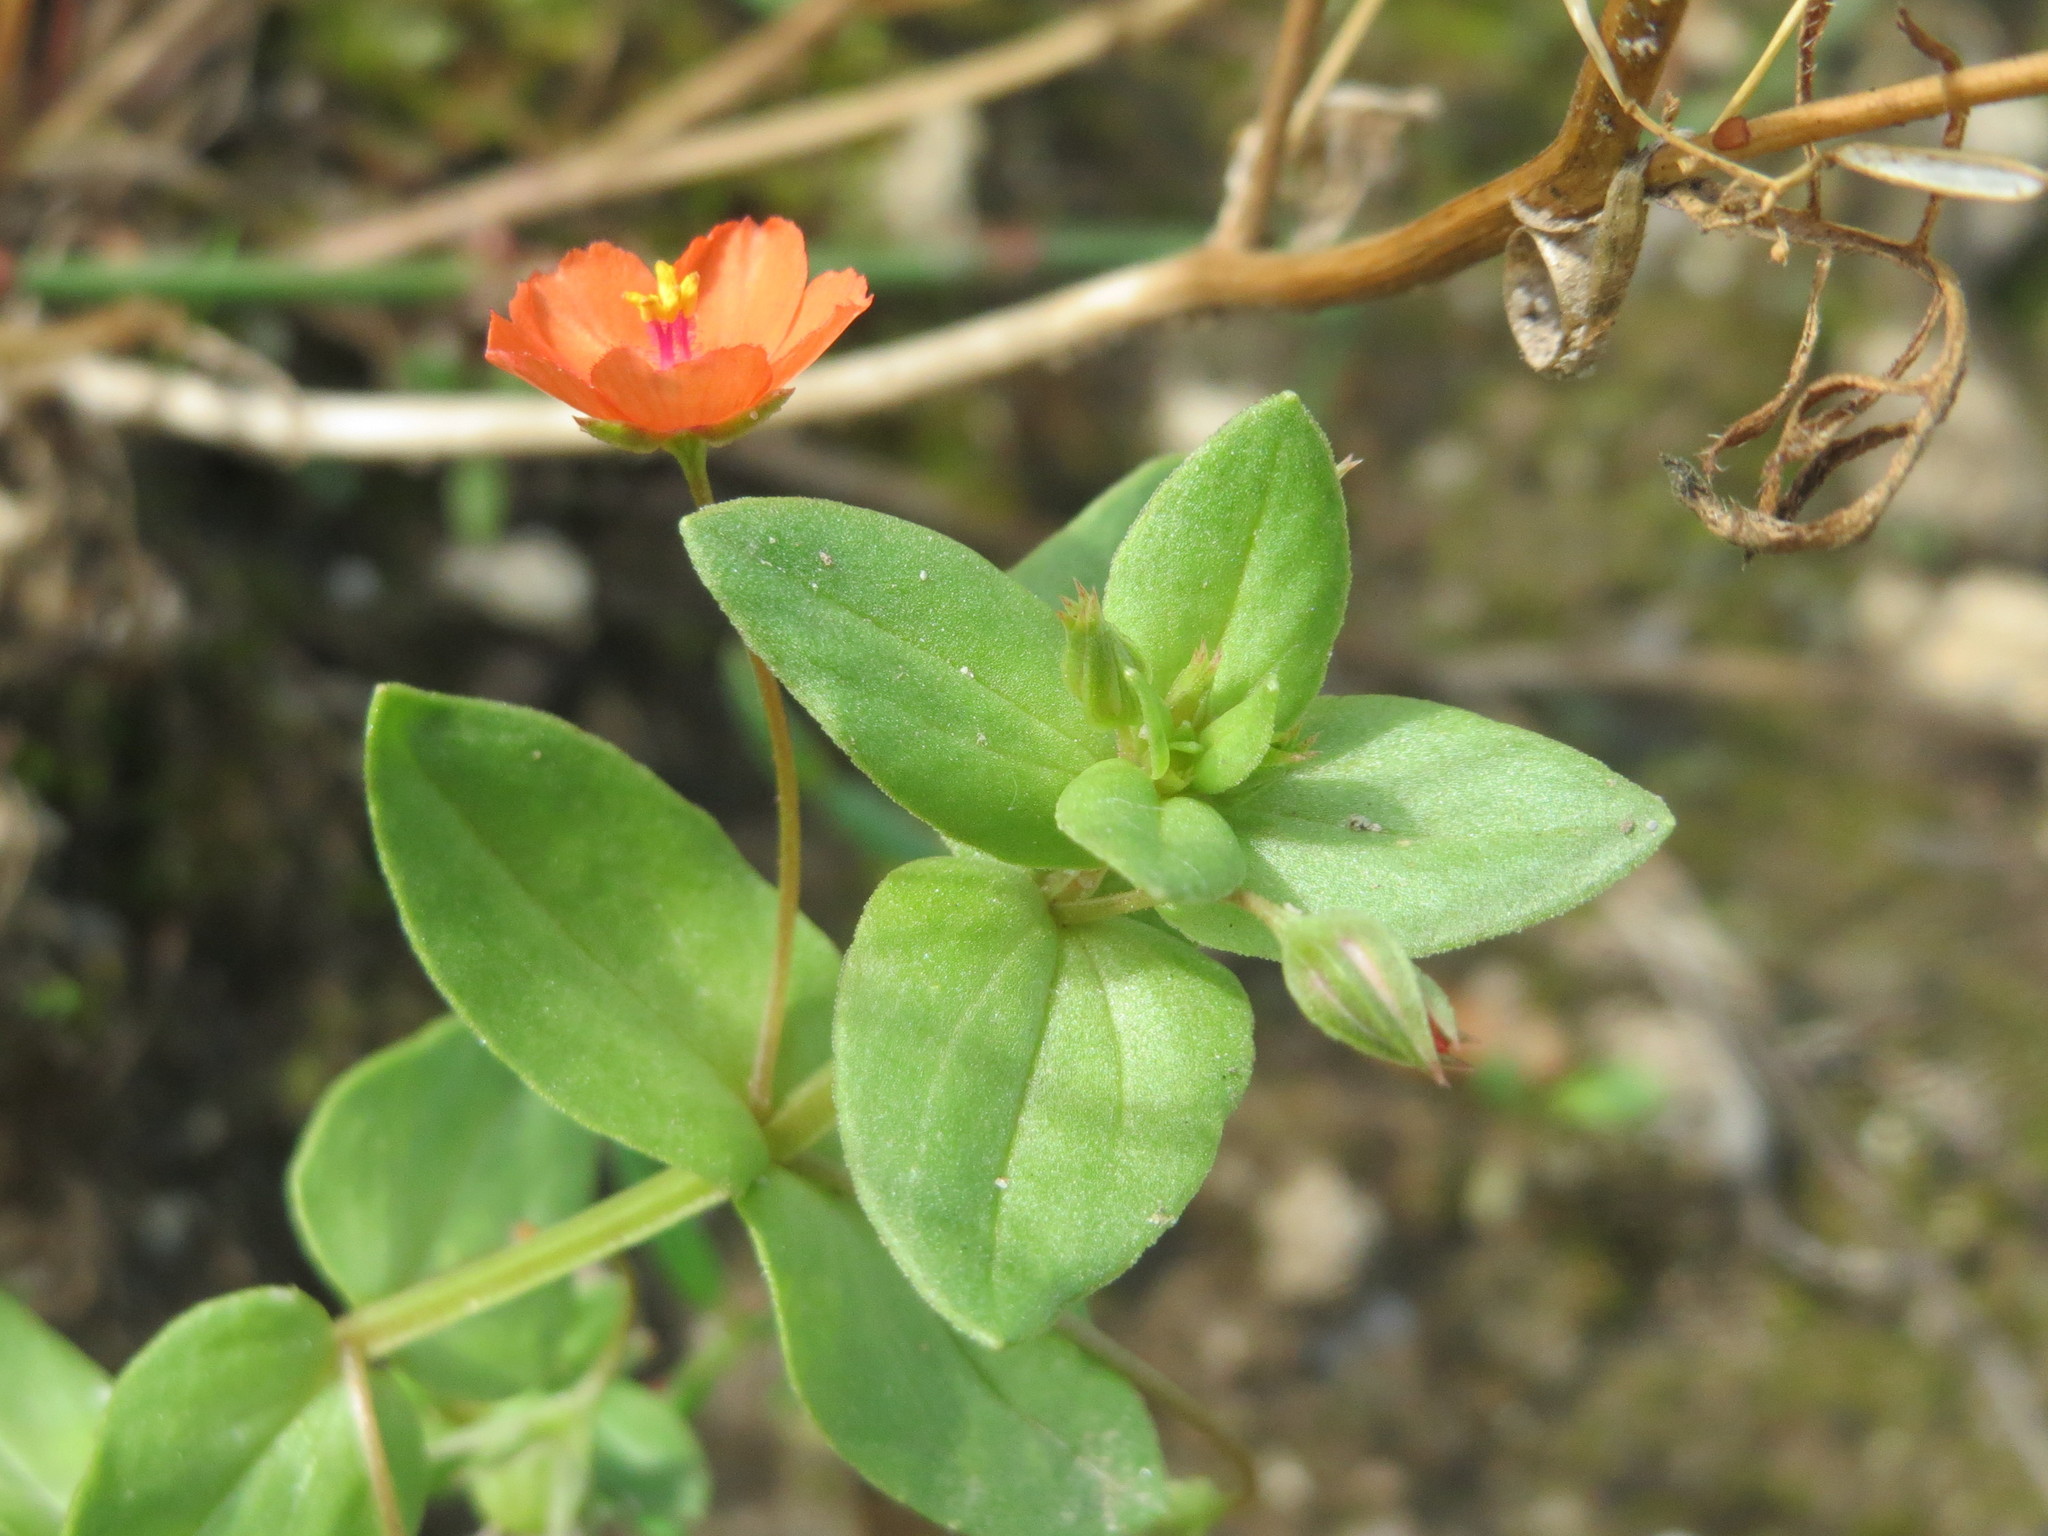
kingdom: Plantae
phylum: Tracheophyta
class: Magnoliopsida
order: Ericales
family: Primulaceae
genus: Lysimachia
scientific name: Lysimachia arvensis
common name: Scarlet pimpernel
